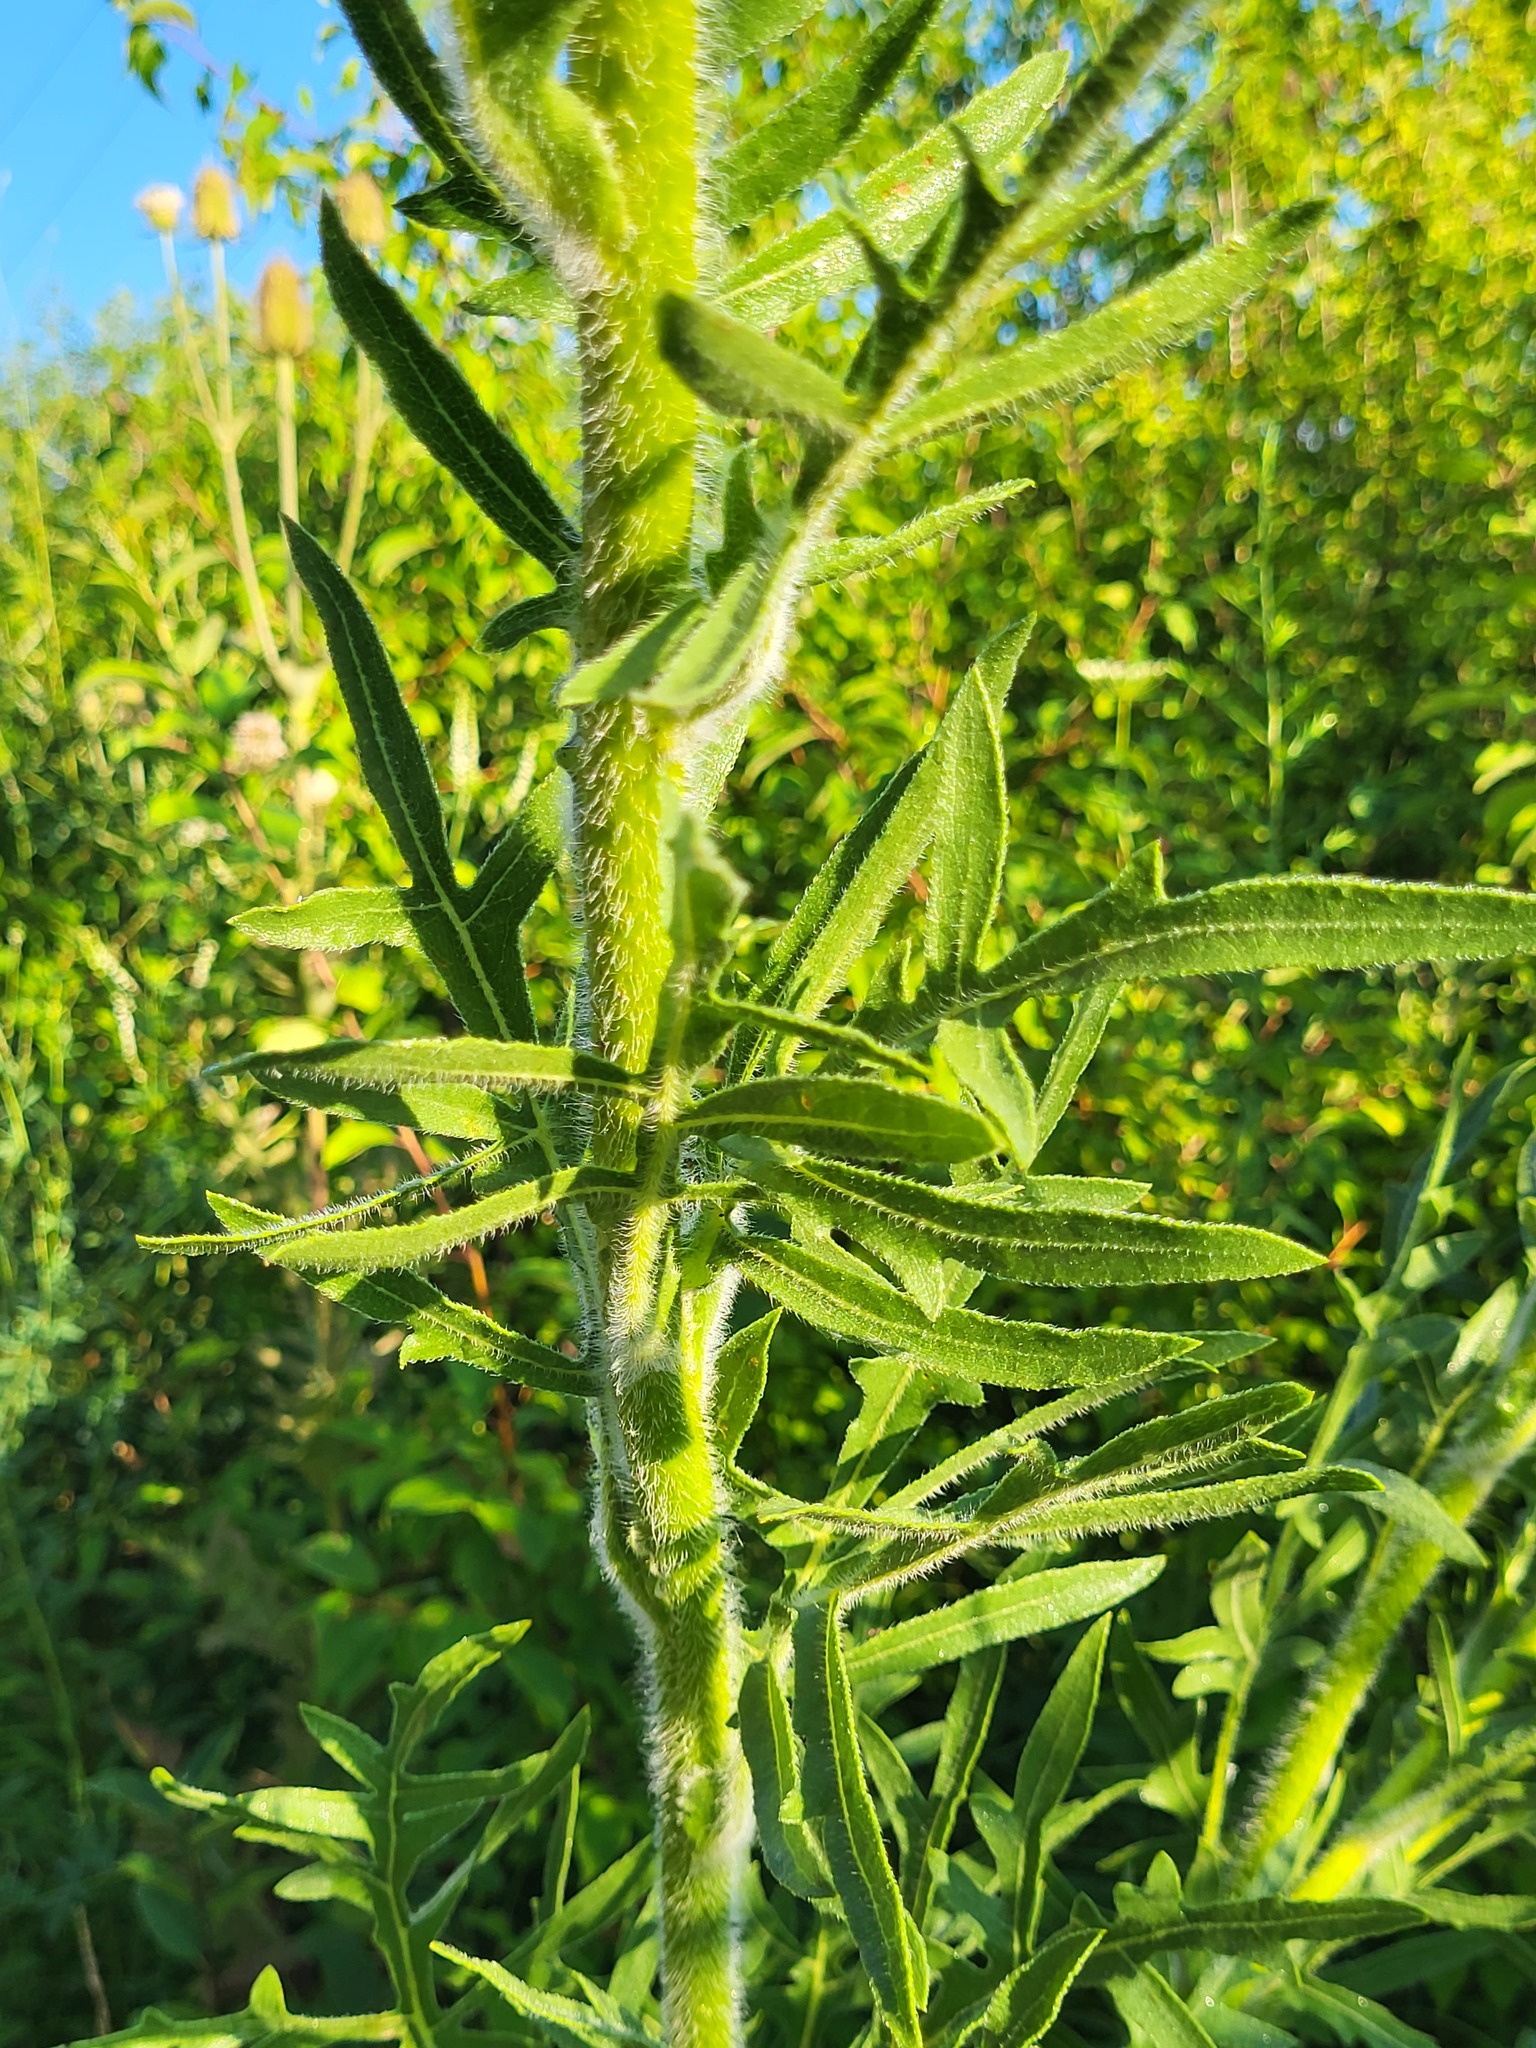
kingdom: Plantae
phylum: Tracheophyta
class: Magnoliopsida
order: Asterales
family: Asteraceae
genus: Silphium
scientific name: Silphium laciniatum
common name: Polarplant
